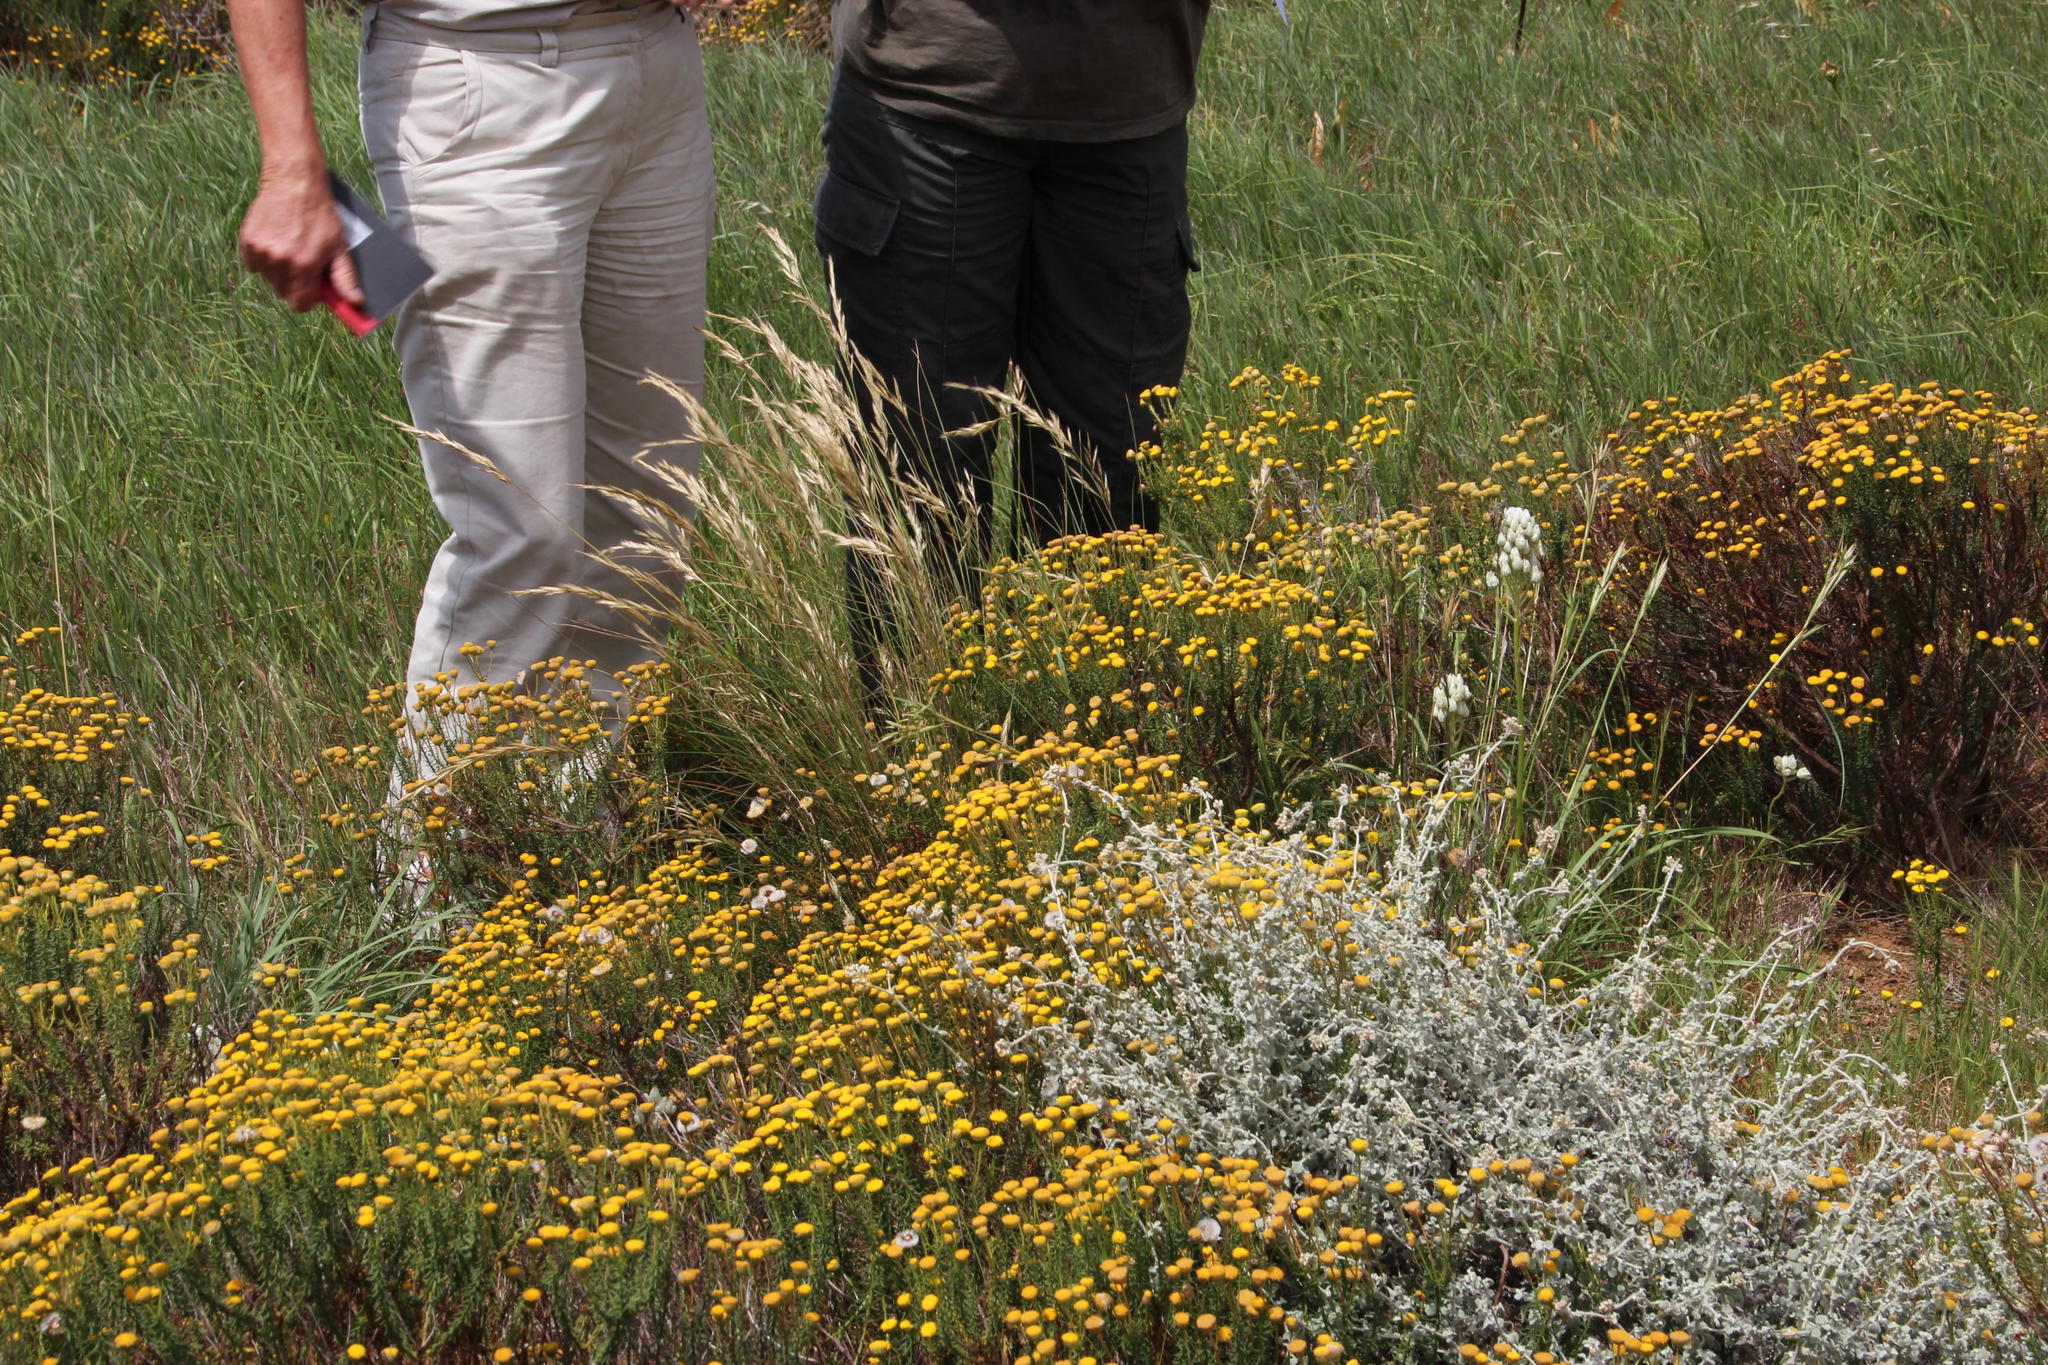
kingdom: Plantae
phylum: Tracheophyta
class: Magnoliopsida
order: Asterales
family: Asteraceae
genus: Seriphium
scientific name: Seriphium plumosum
